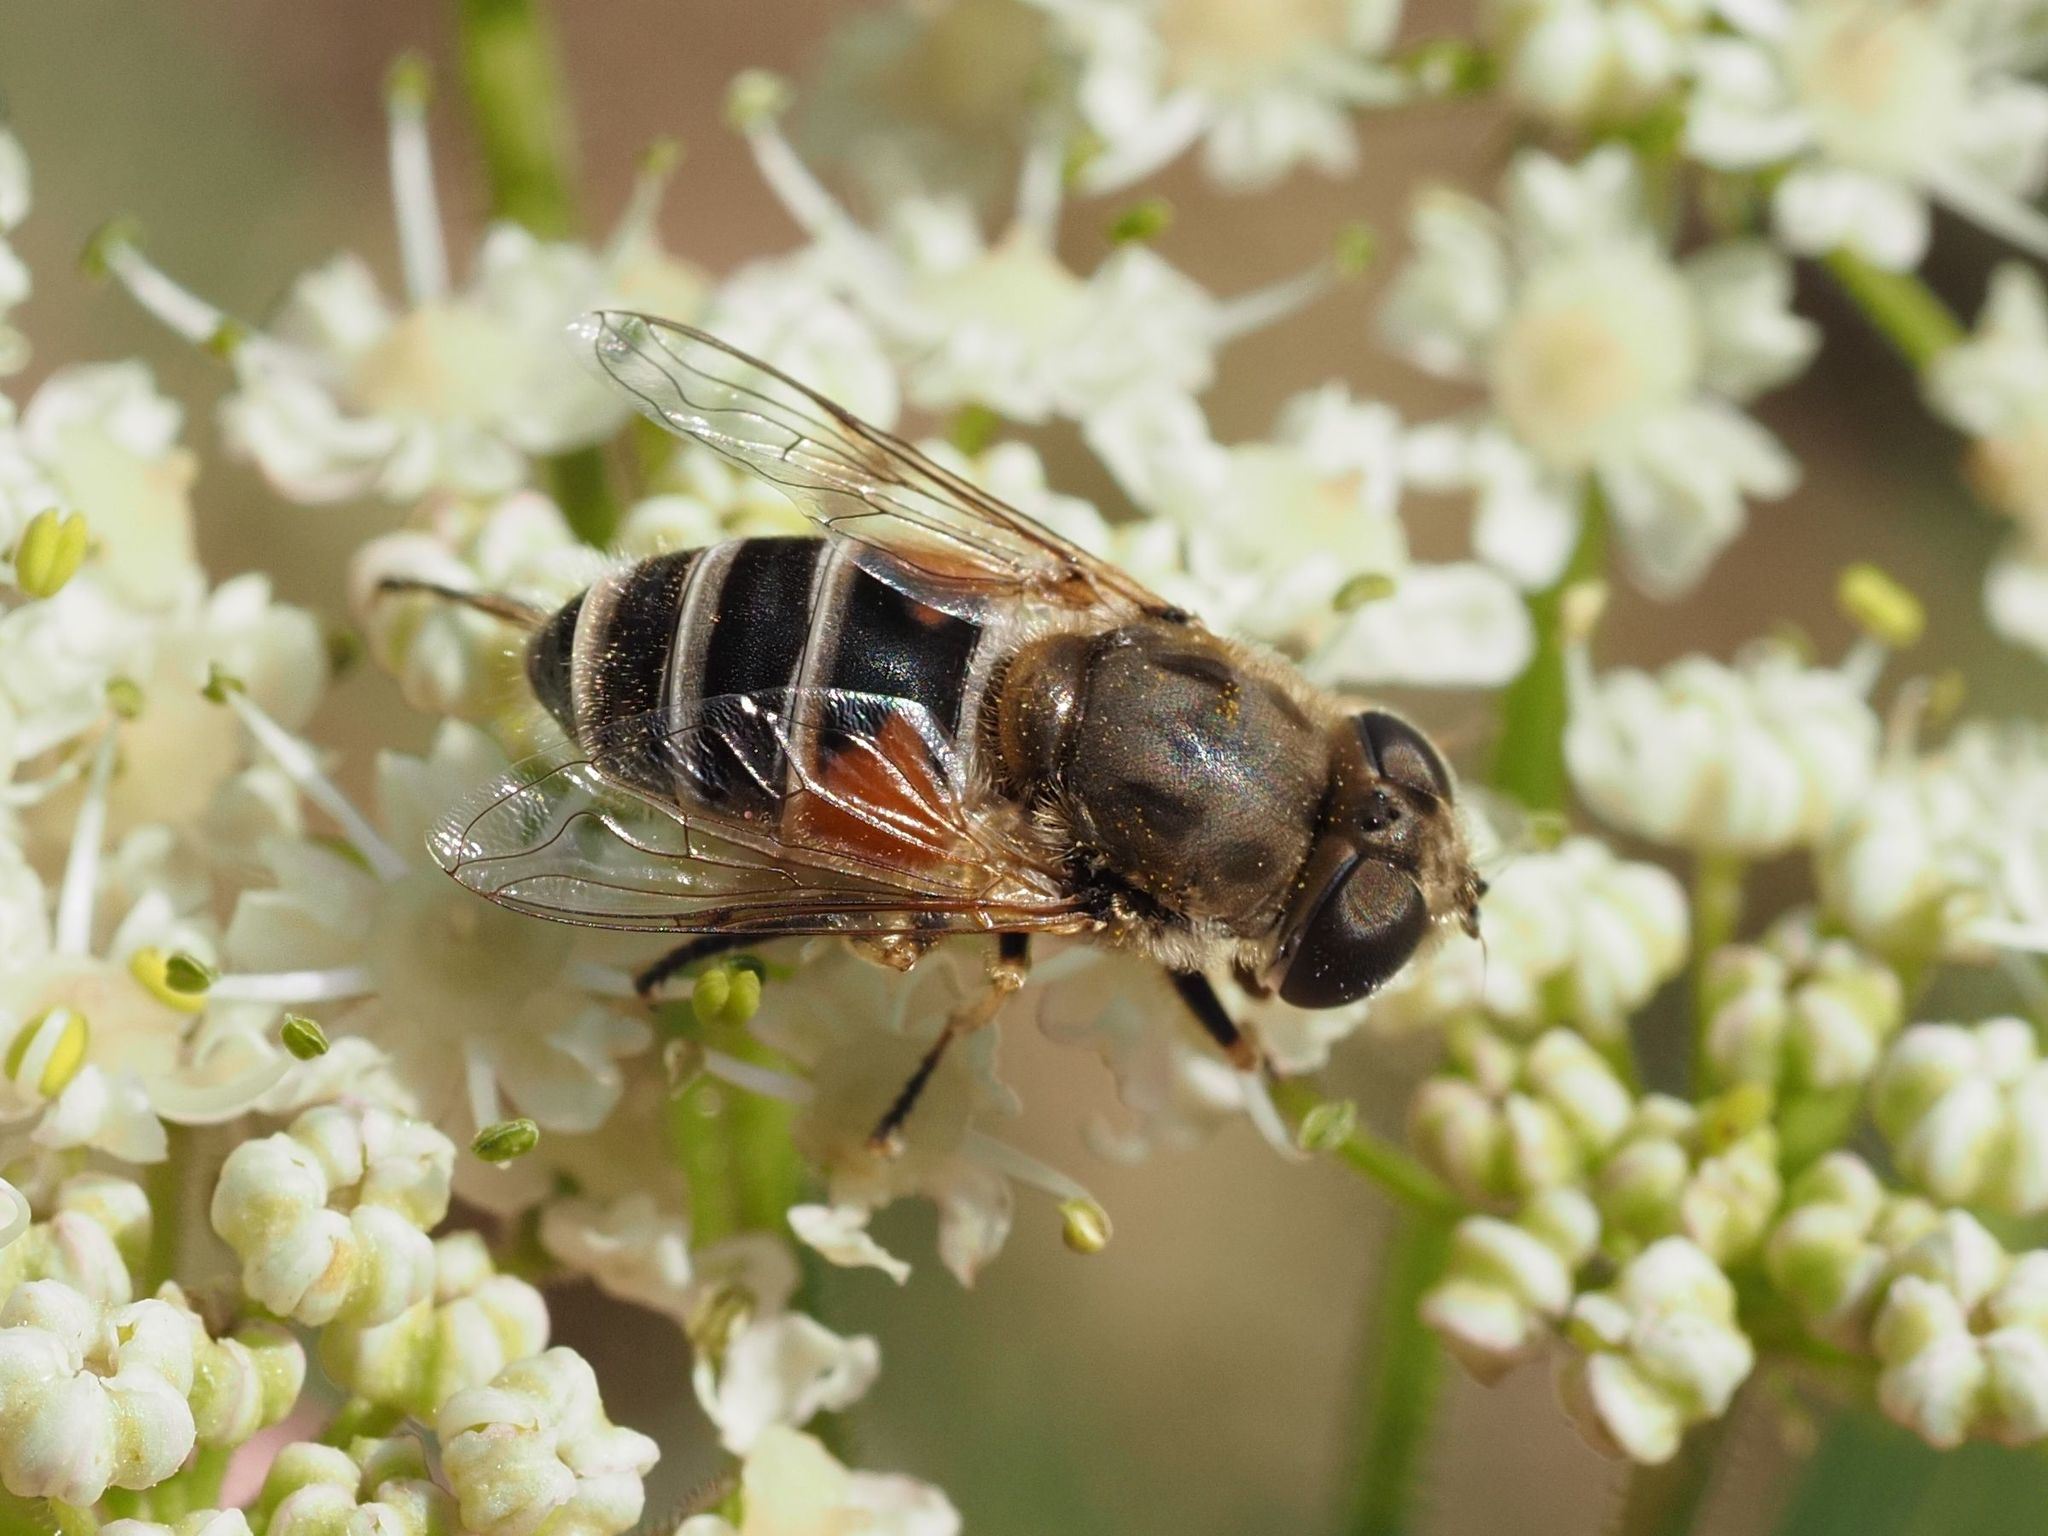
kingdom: Animalia
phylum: Arthropoda
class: Insecta
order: Diptera
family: Syrphidae
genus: Eristalis
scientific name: Eristalis arbustorum
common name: Hover fly
